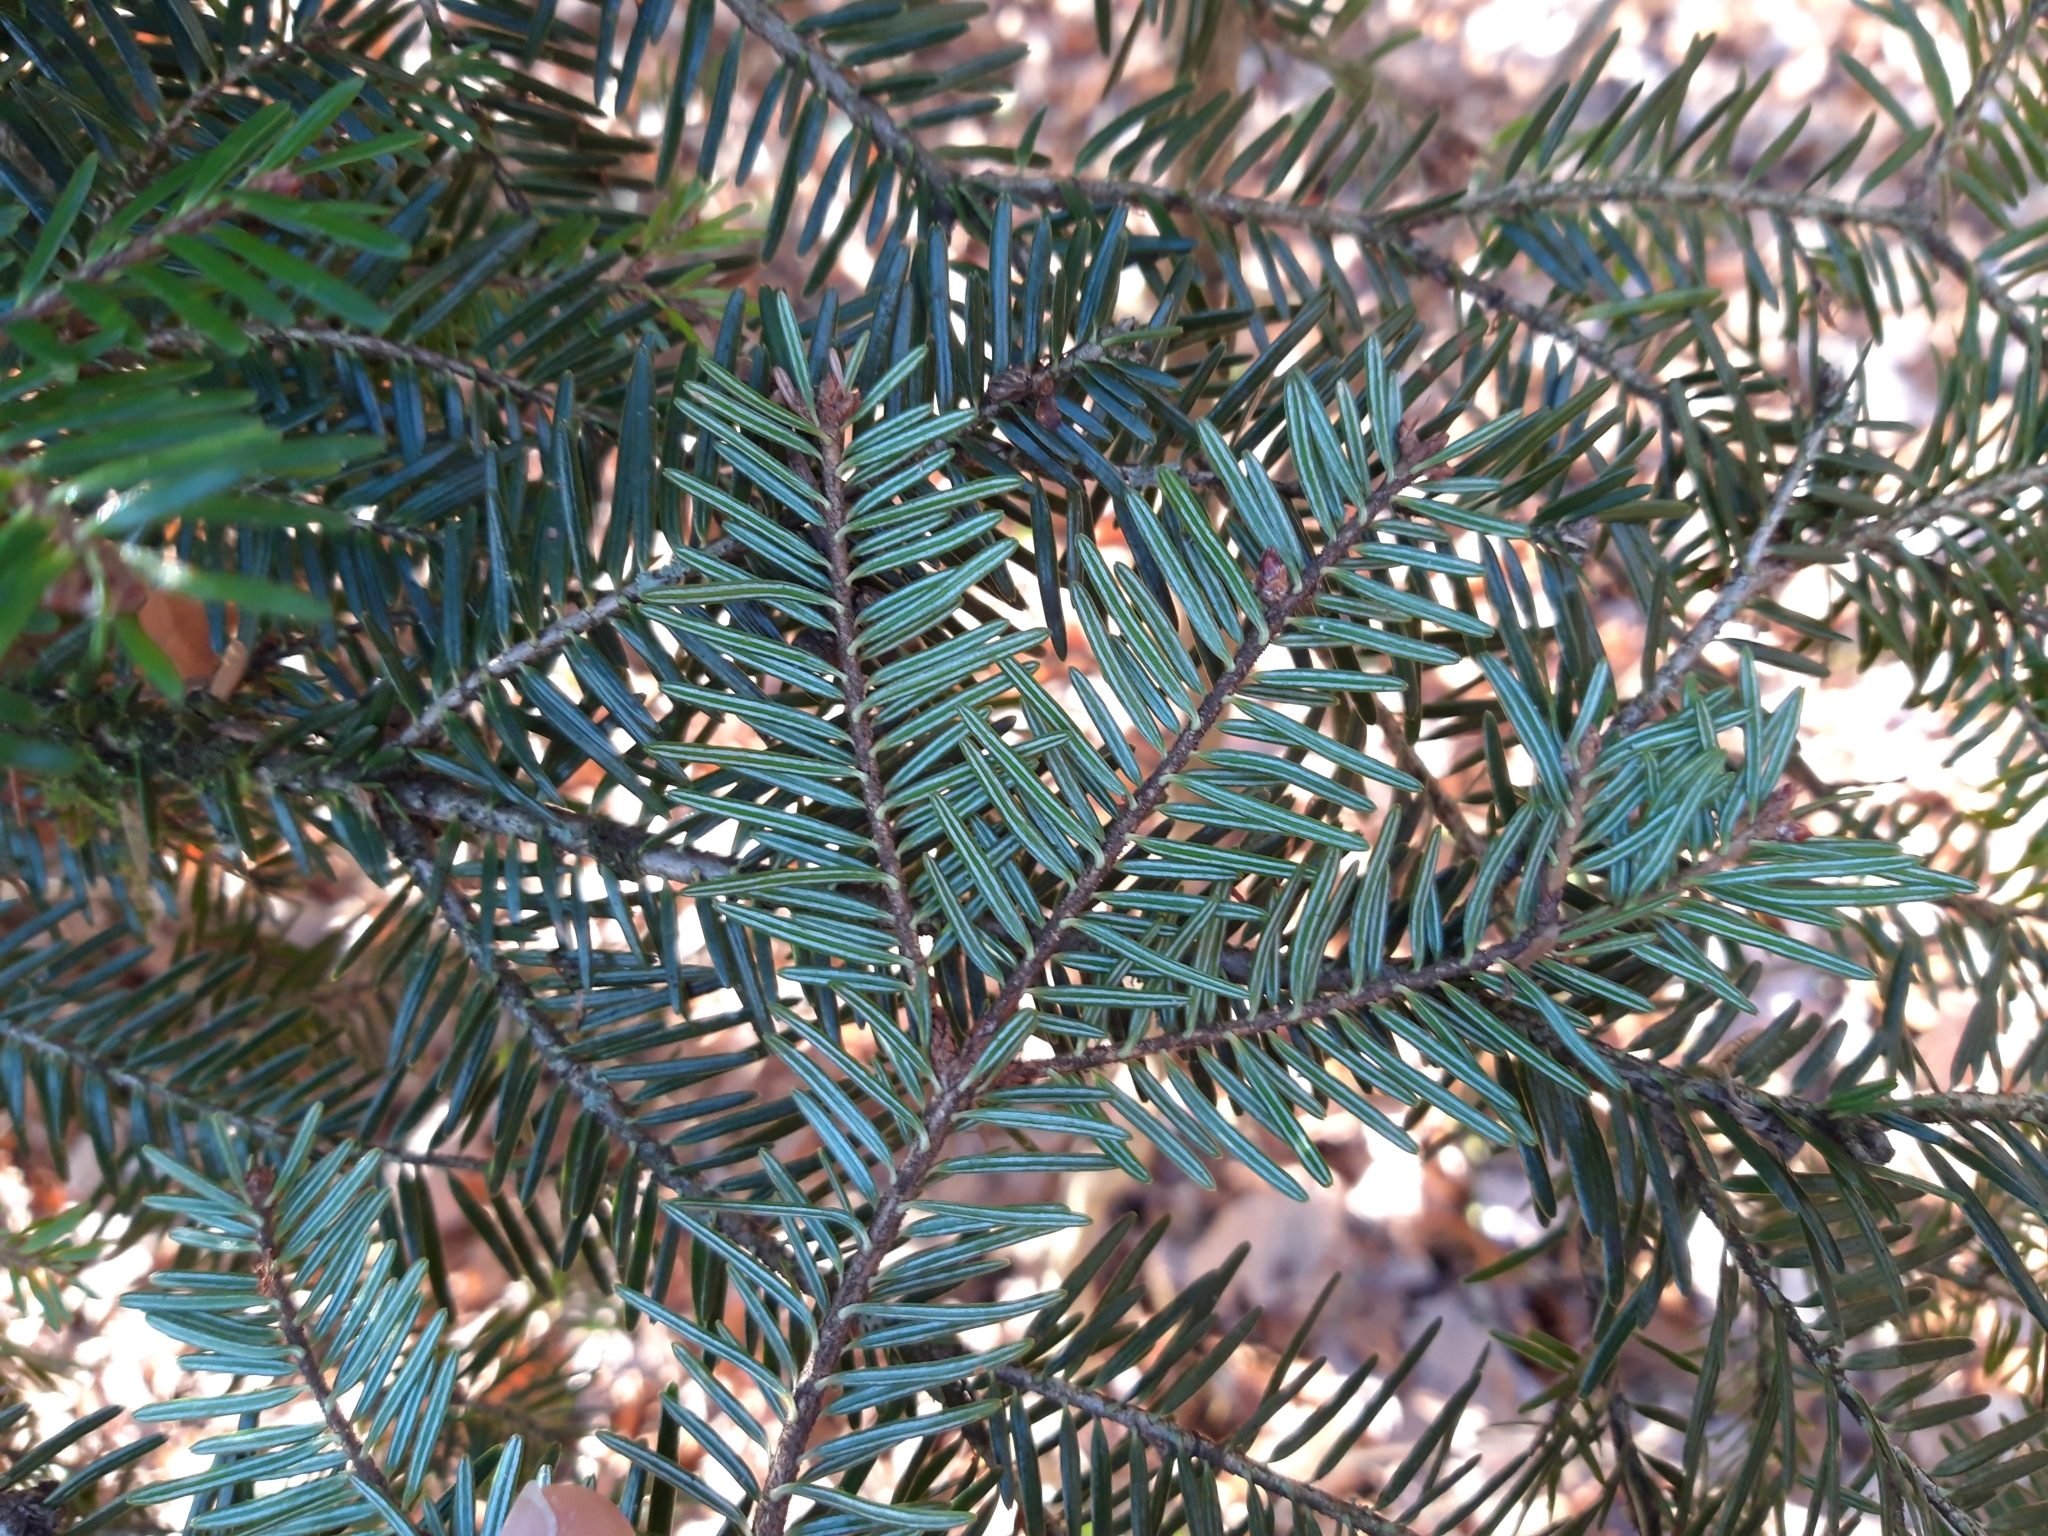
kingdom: Plantae
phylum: Tracheophyta
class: Pinopsida
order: Pinales
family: Pinaceae
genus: Abies
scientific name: Abies alba
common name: Silver fir
